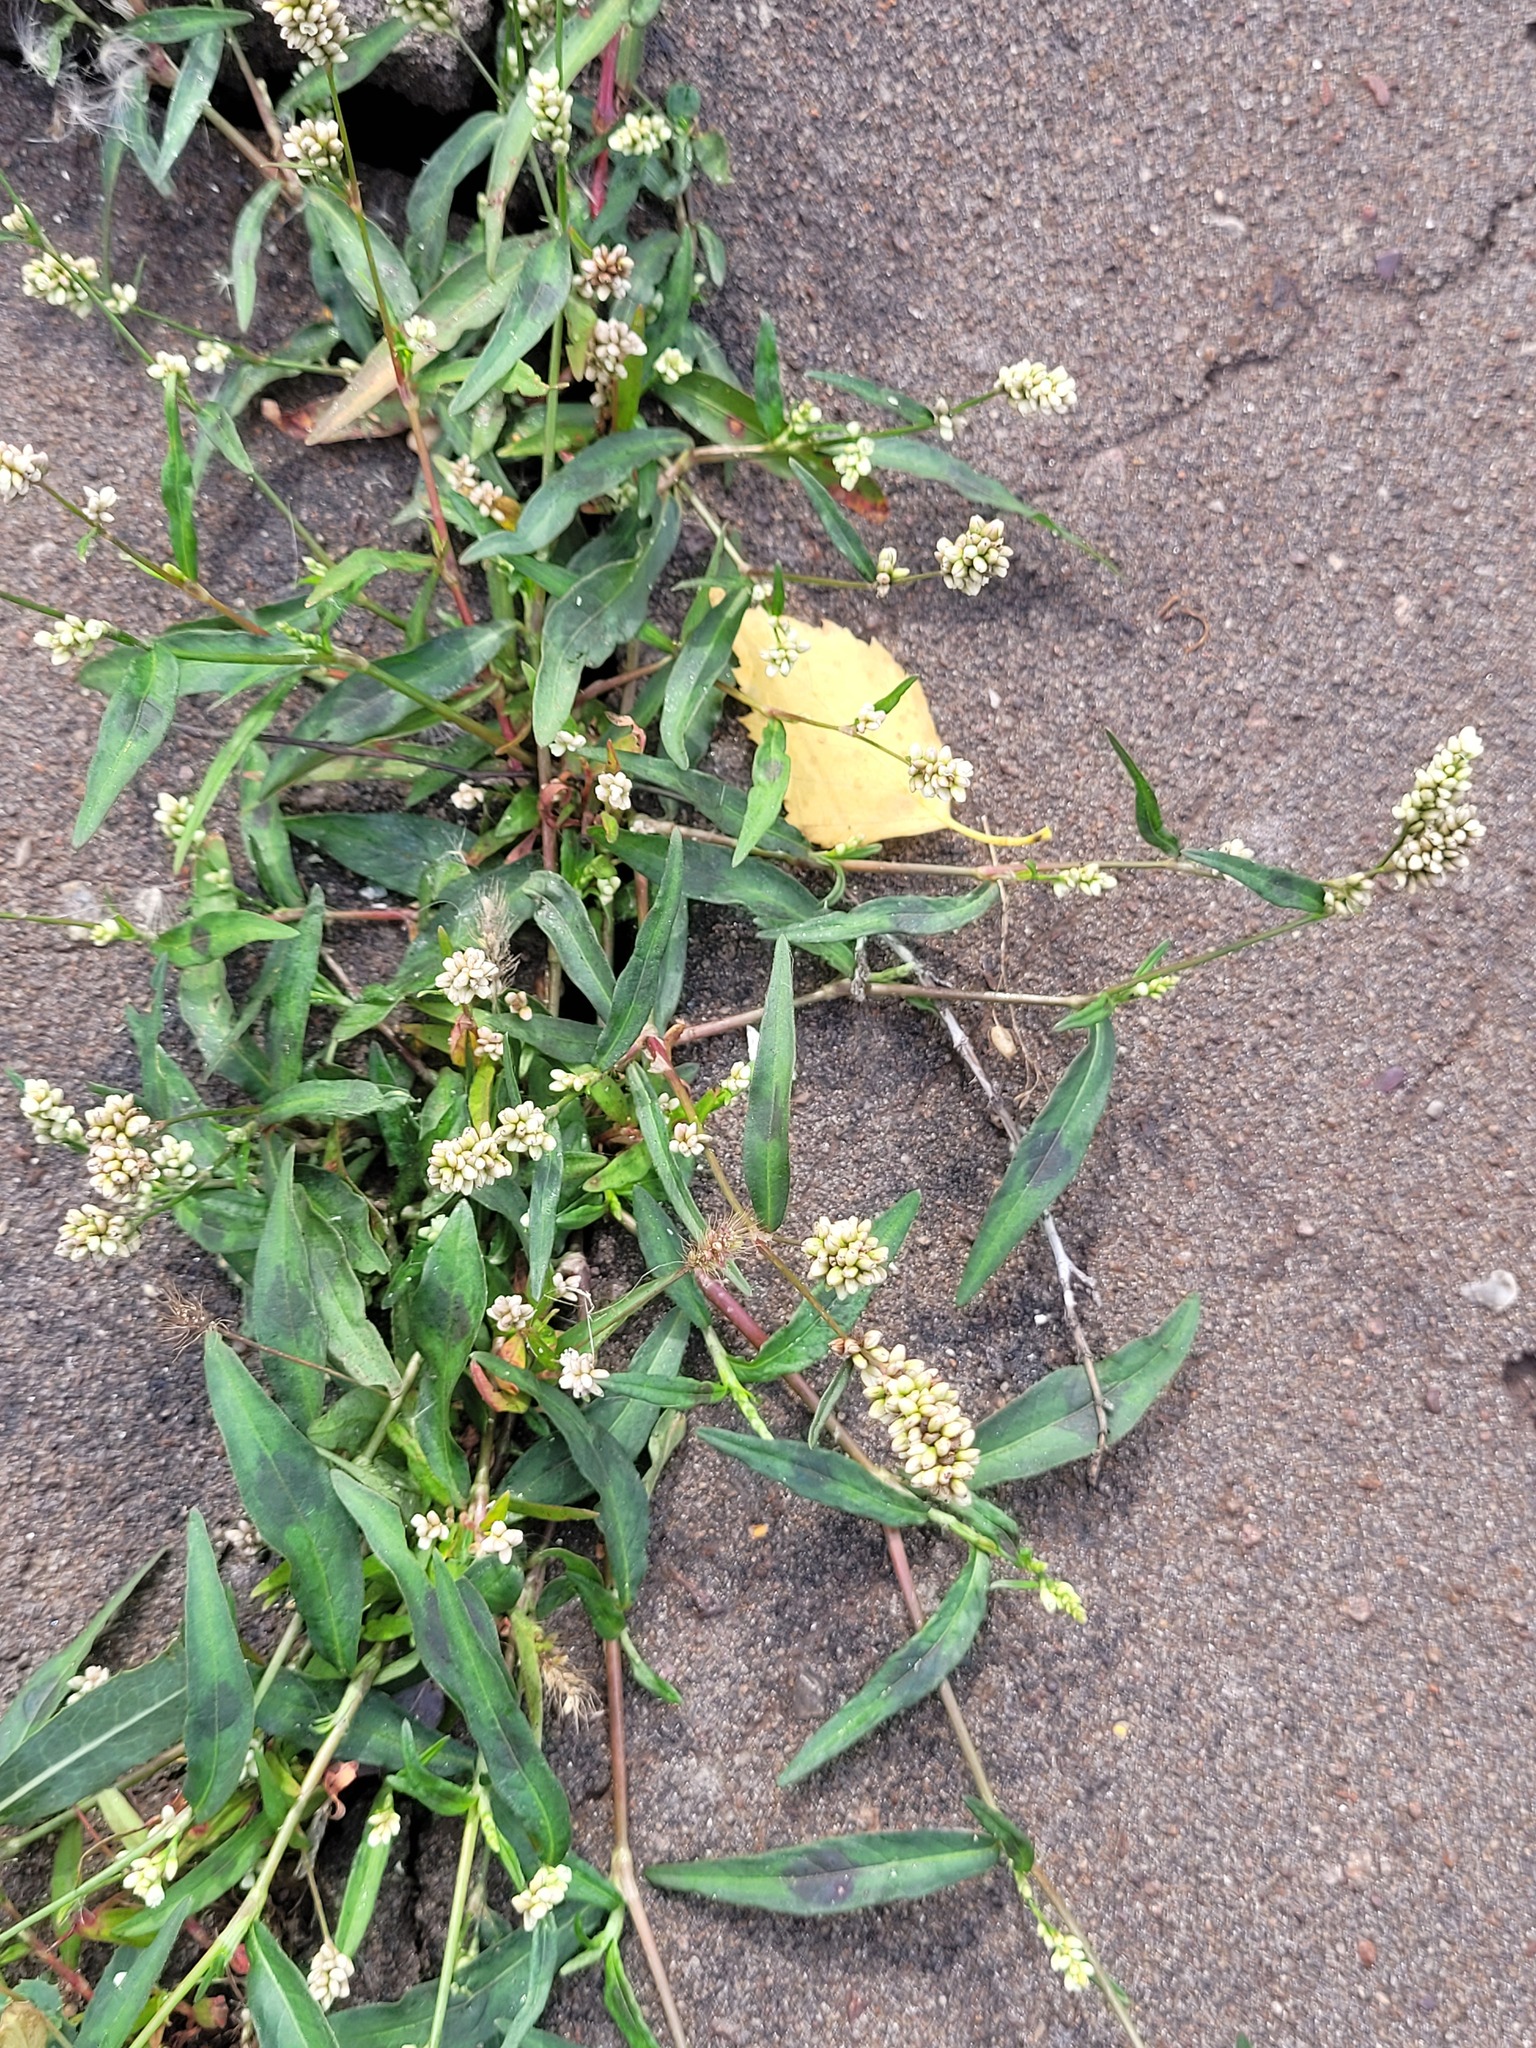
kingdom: Plantae
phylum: Tracheophyta
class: Magnoliopsida
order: Caryophyllales
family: Polygonaceae
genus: Persicaria
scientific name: Persicaria maculosa
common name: Redshank
